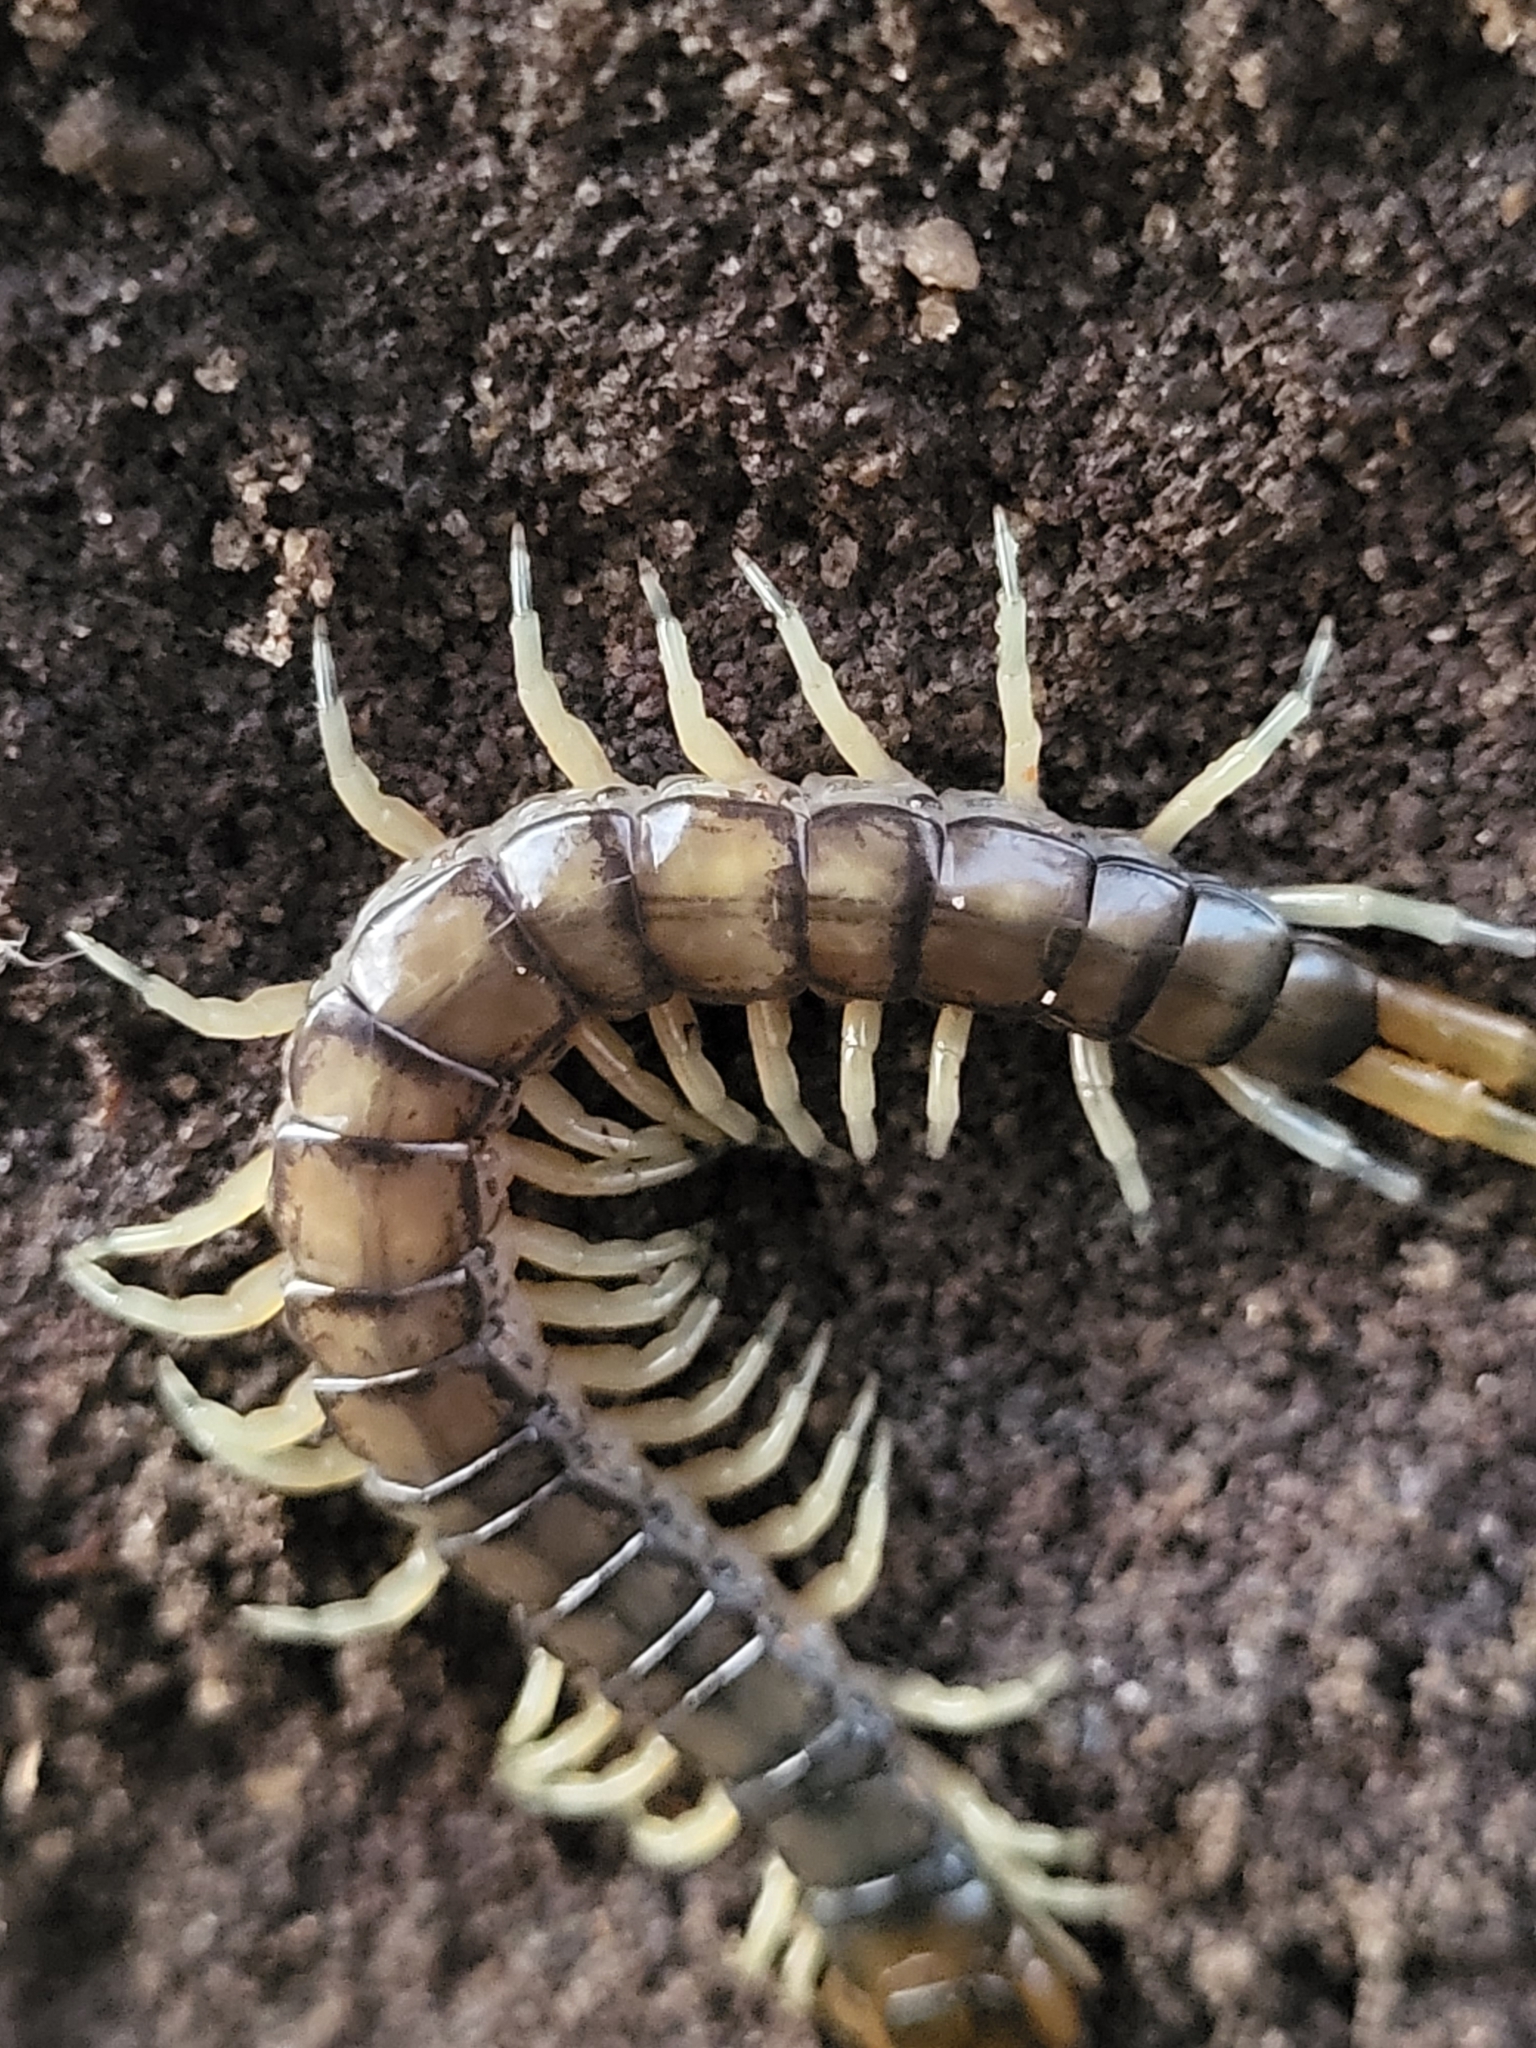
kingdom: Animalia
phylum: Arthropoda
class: Chilopoda
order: Scolopendromorpha
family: Scolopendridae
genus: Hemiscolopendra
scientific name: Hemiscolopendra marginata
